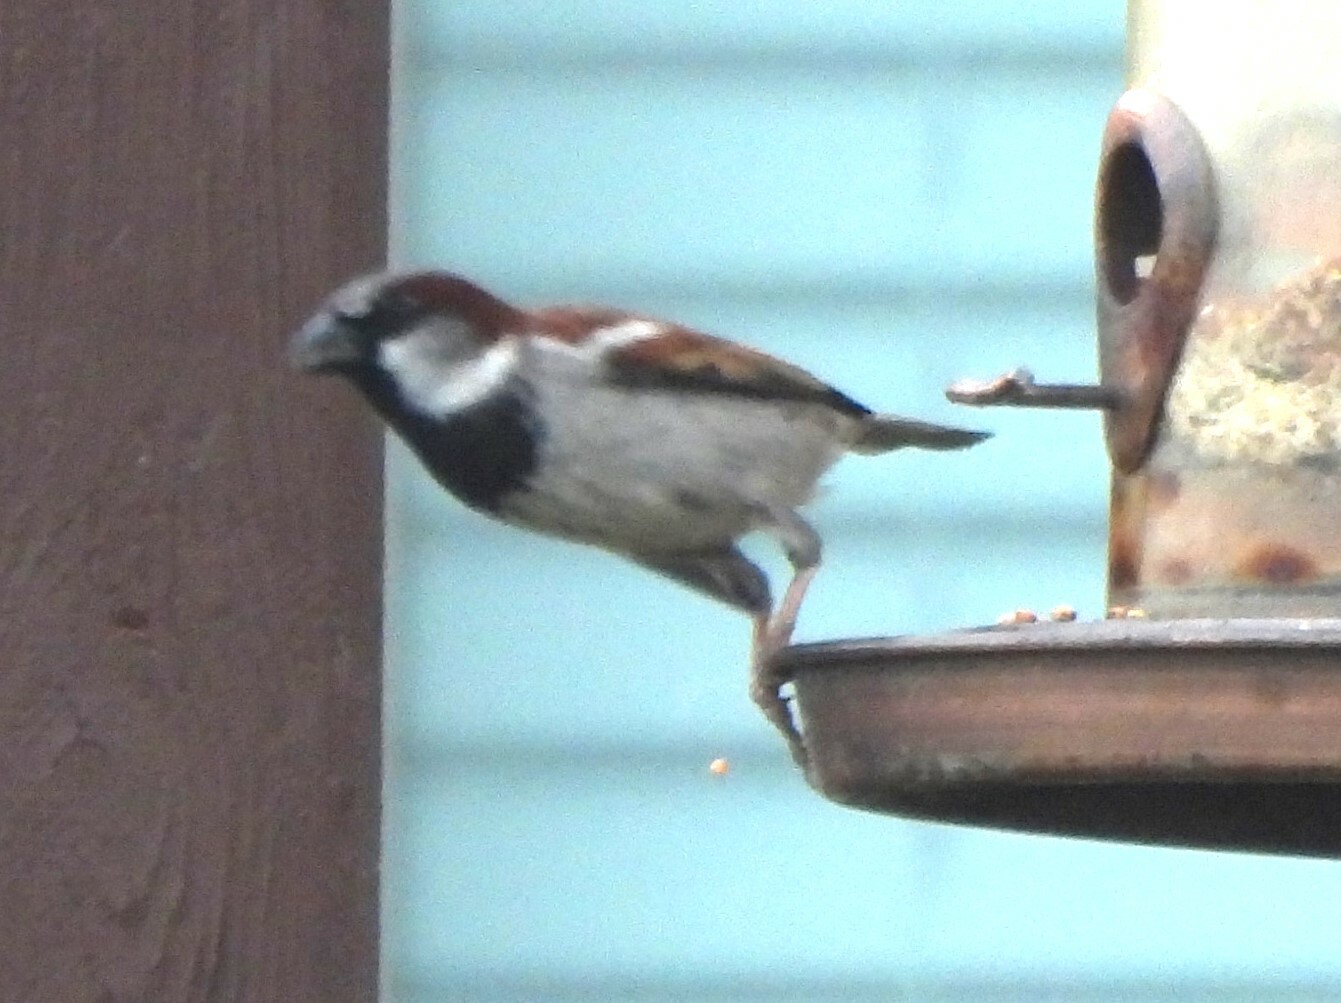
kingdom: Animalia
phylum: Chordata
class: Aves
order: Passeriformes
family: Passeridae
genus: Passer
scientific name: Passer domesticus
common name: House sparrow
